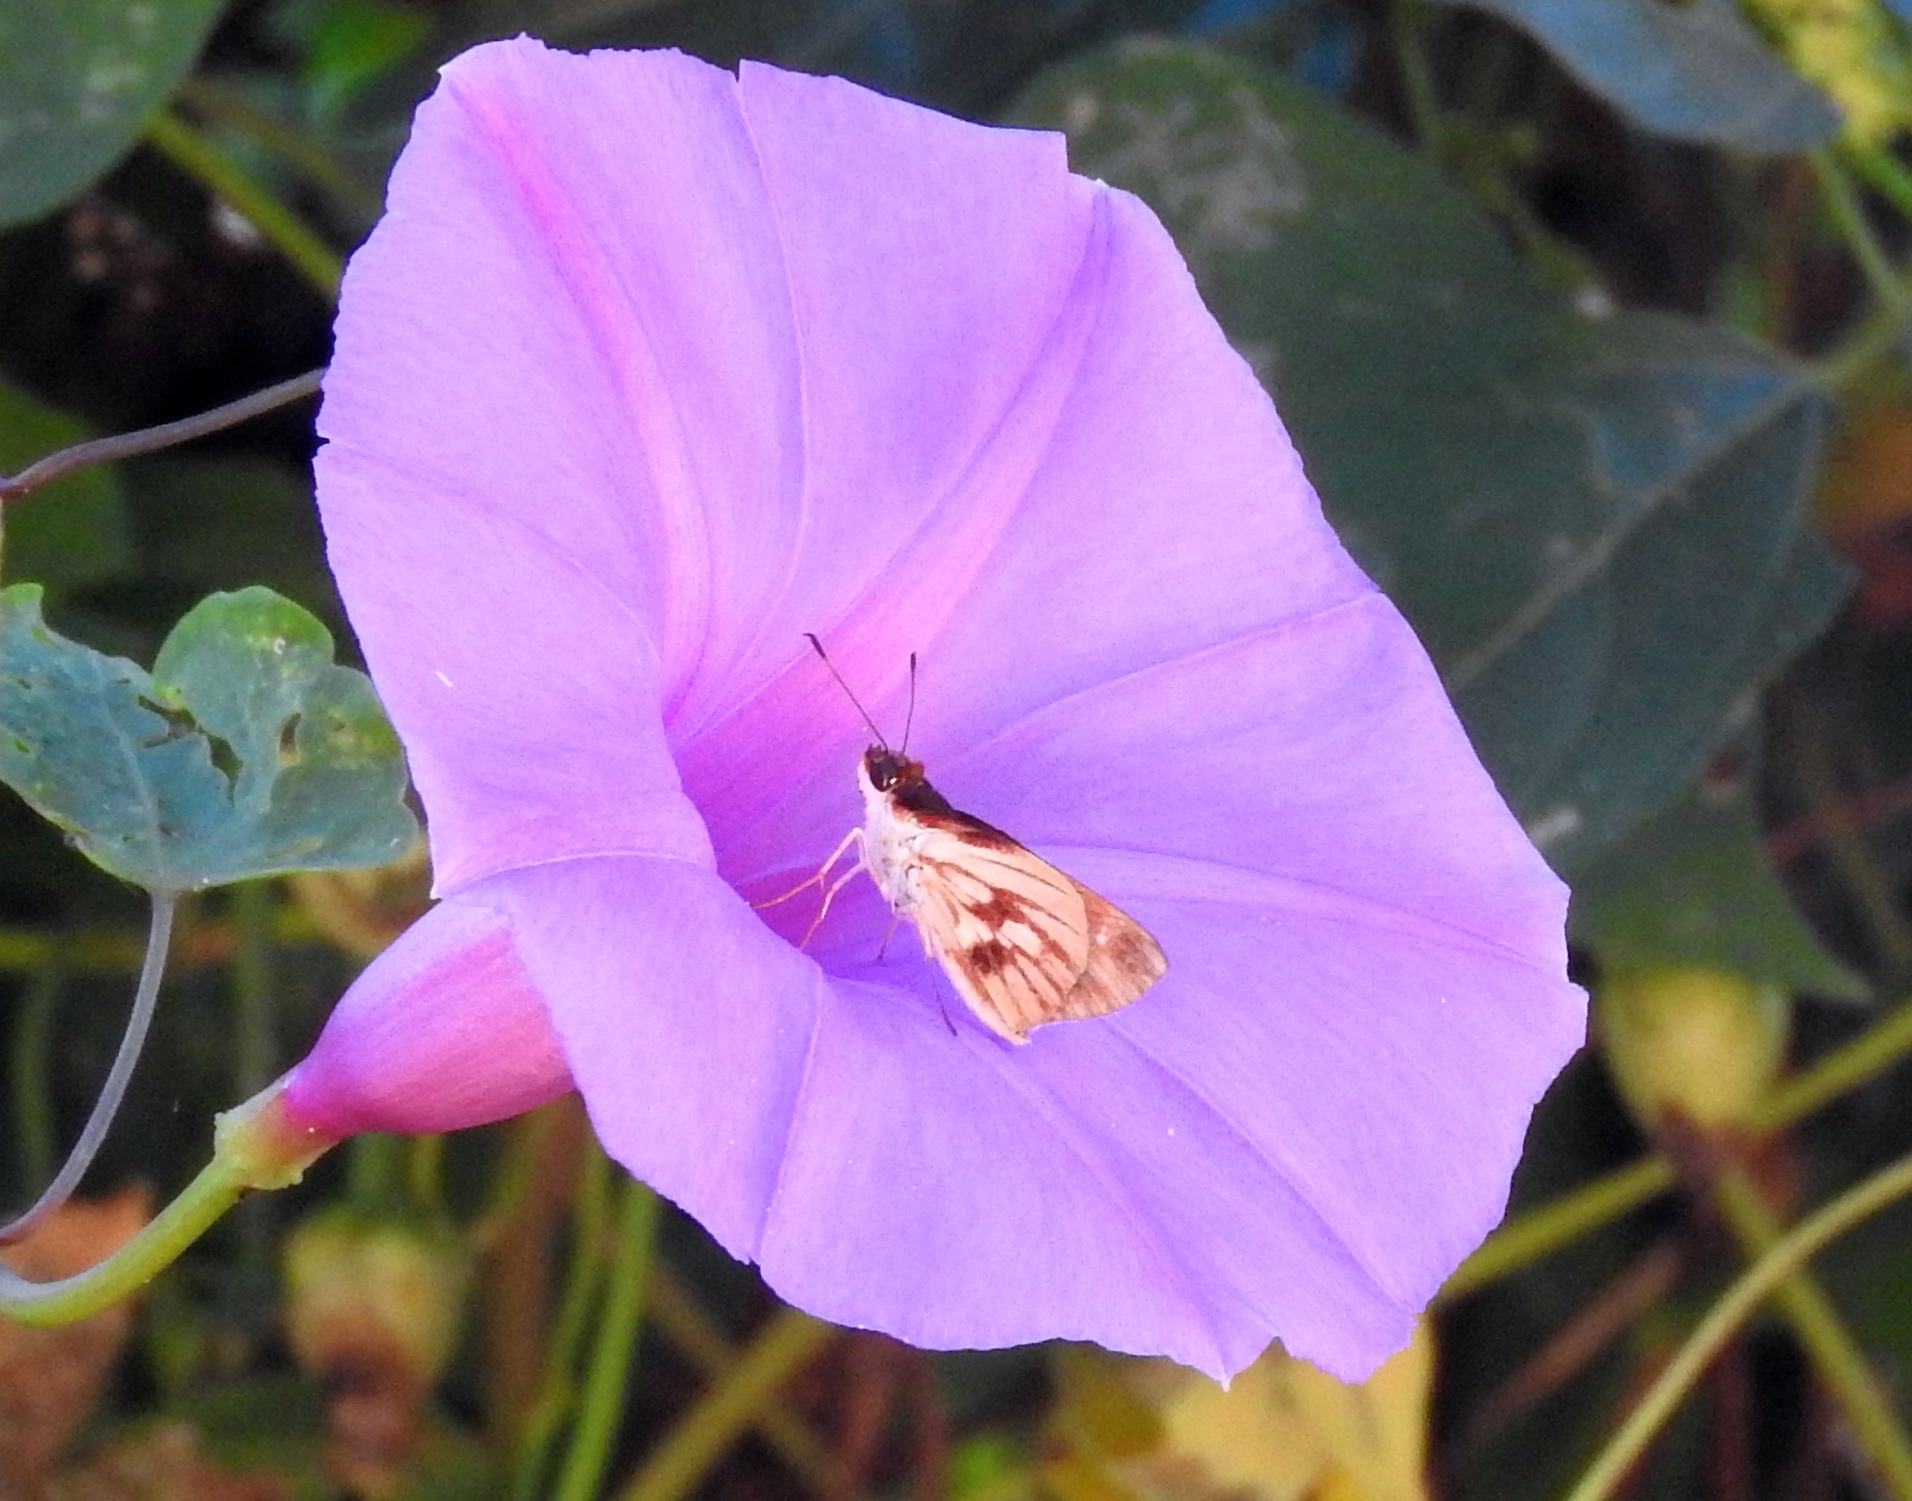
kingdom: Animalia
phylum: Arthropoda
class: Insecta
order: Lepidoptera
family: Hesperiidae
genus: Troyus
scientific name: Troyus fantasos
